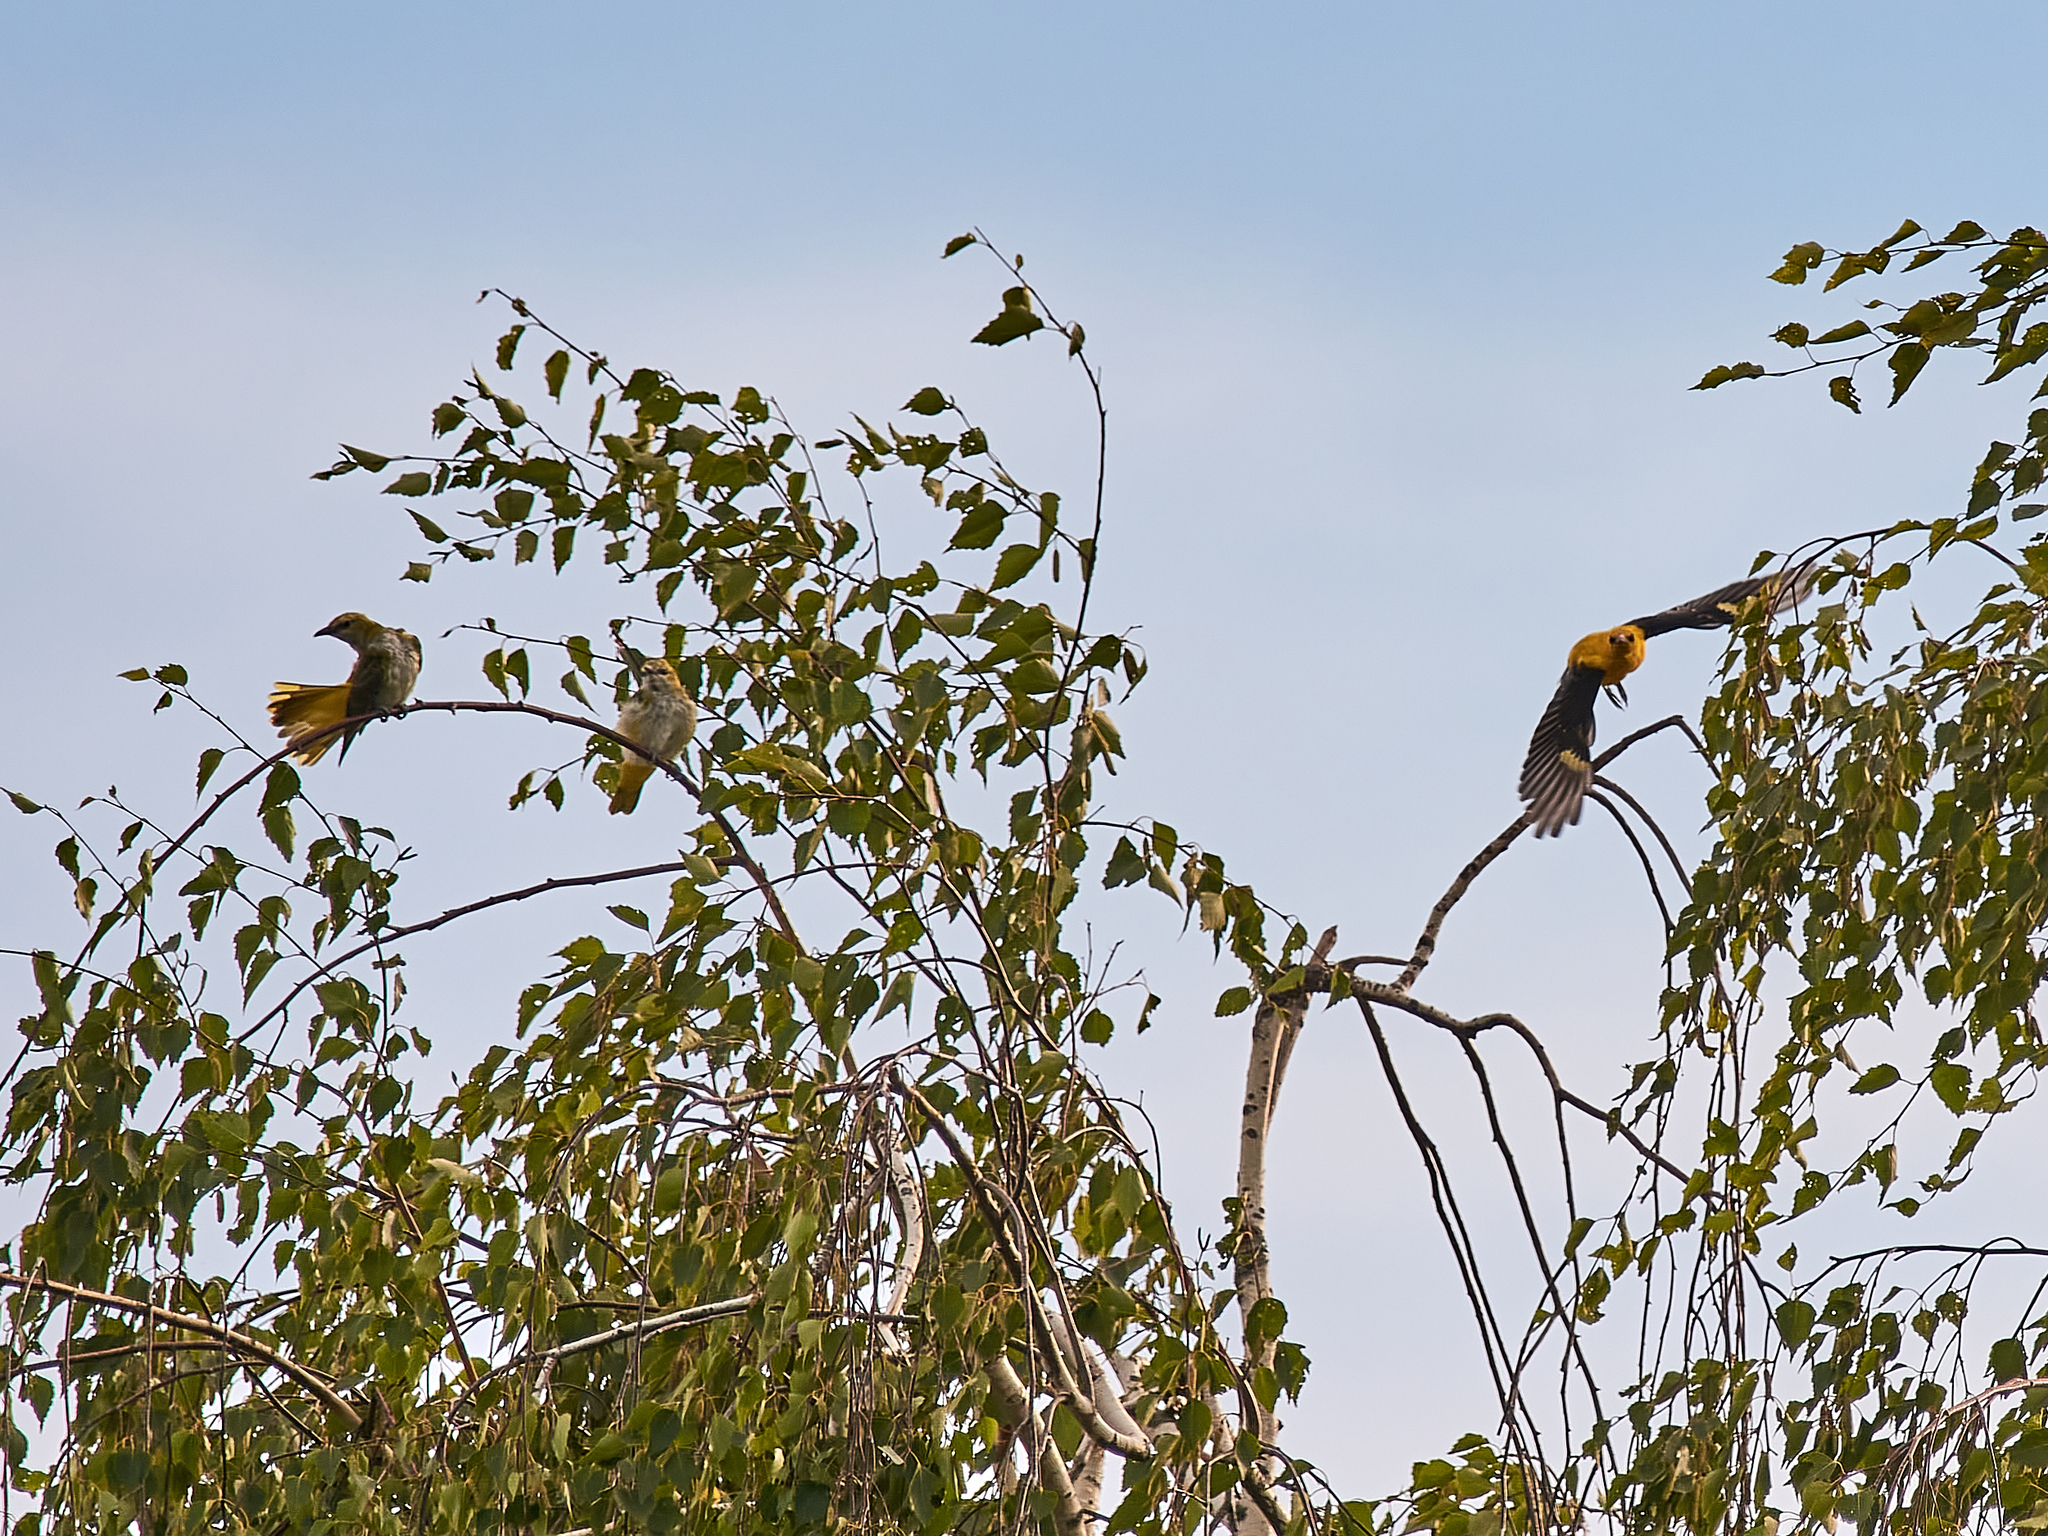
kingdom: Animalia
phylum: Chordata
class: Aves
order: Passeriformes
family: Oriolidae
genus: Oriolus
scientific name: Oriolus oriolus
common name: Eurasian golden oriole
